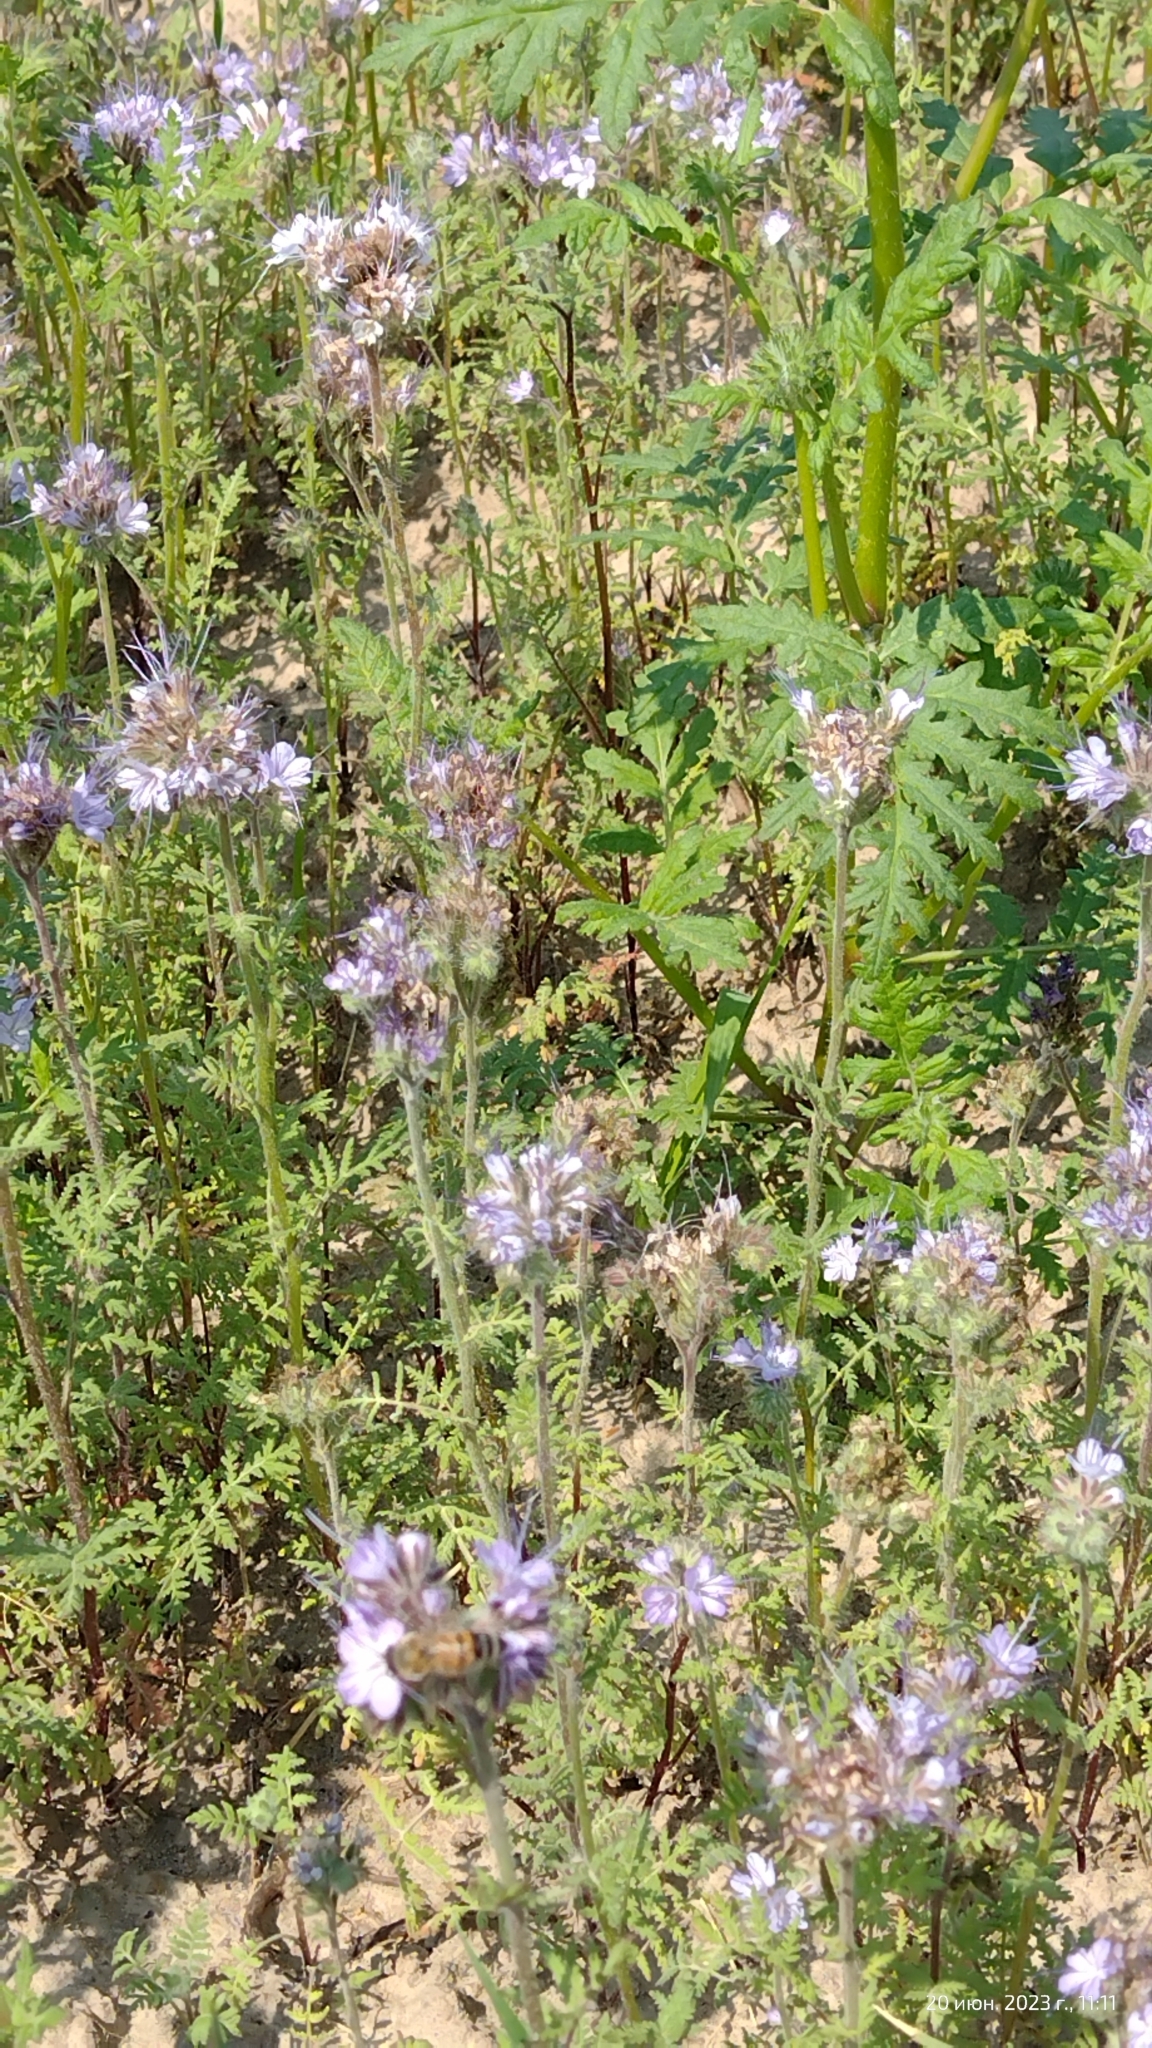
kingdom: Plantae
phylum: Tracheophyta
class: Magnoliopsida
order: Boraginales
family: Hydrophyllaceae
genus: Phacelia
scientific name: Phacelia tanacetifolia
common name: Phacelia
